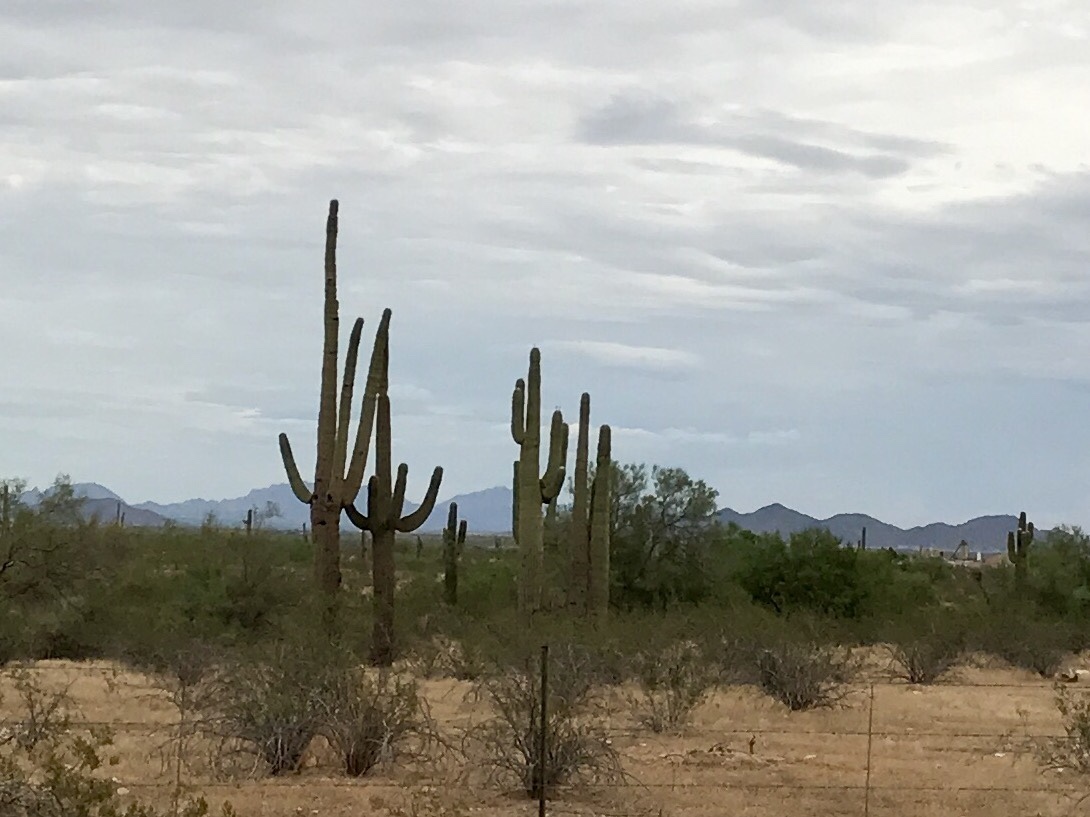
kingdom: Plantae
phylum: Tracheophyta
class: Magnoliopsida
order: Caryophyllales
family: Cactaceae
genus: Carnegiea
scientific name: Carnegiea gigantea
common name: Saguaro
